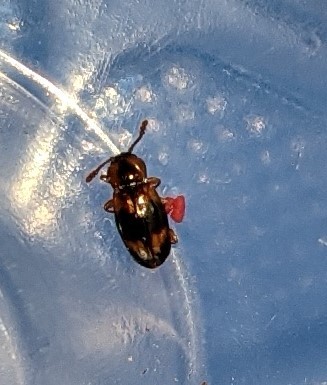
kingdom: Animalia
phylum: Arthropoda
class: Insecta
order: Coleoptera
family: Endomychidae
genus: Phymaphora
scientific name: Phymaphora pulchella
